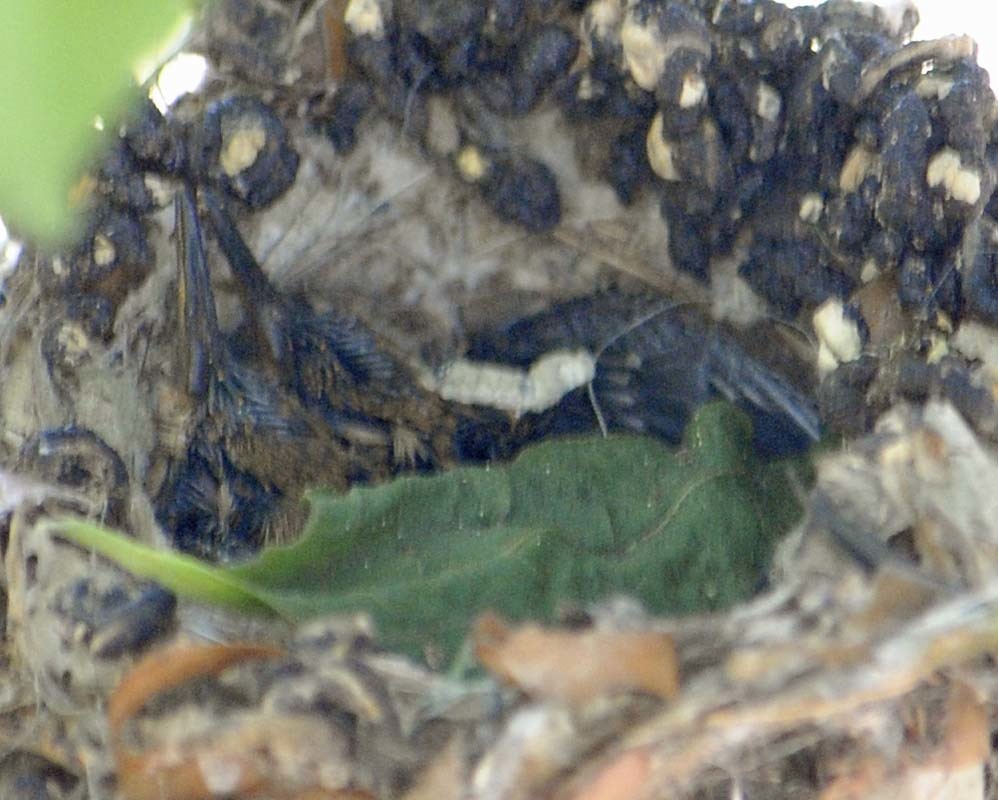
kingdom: Animalia
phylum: Chordata
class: Aves
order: Apodiformes
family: Trochilidae
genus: Cynanthus
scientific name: Cynanthus latirostris
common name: Broad-billed hummingbird
